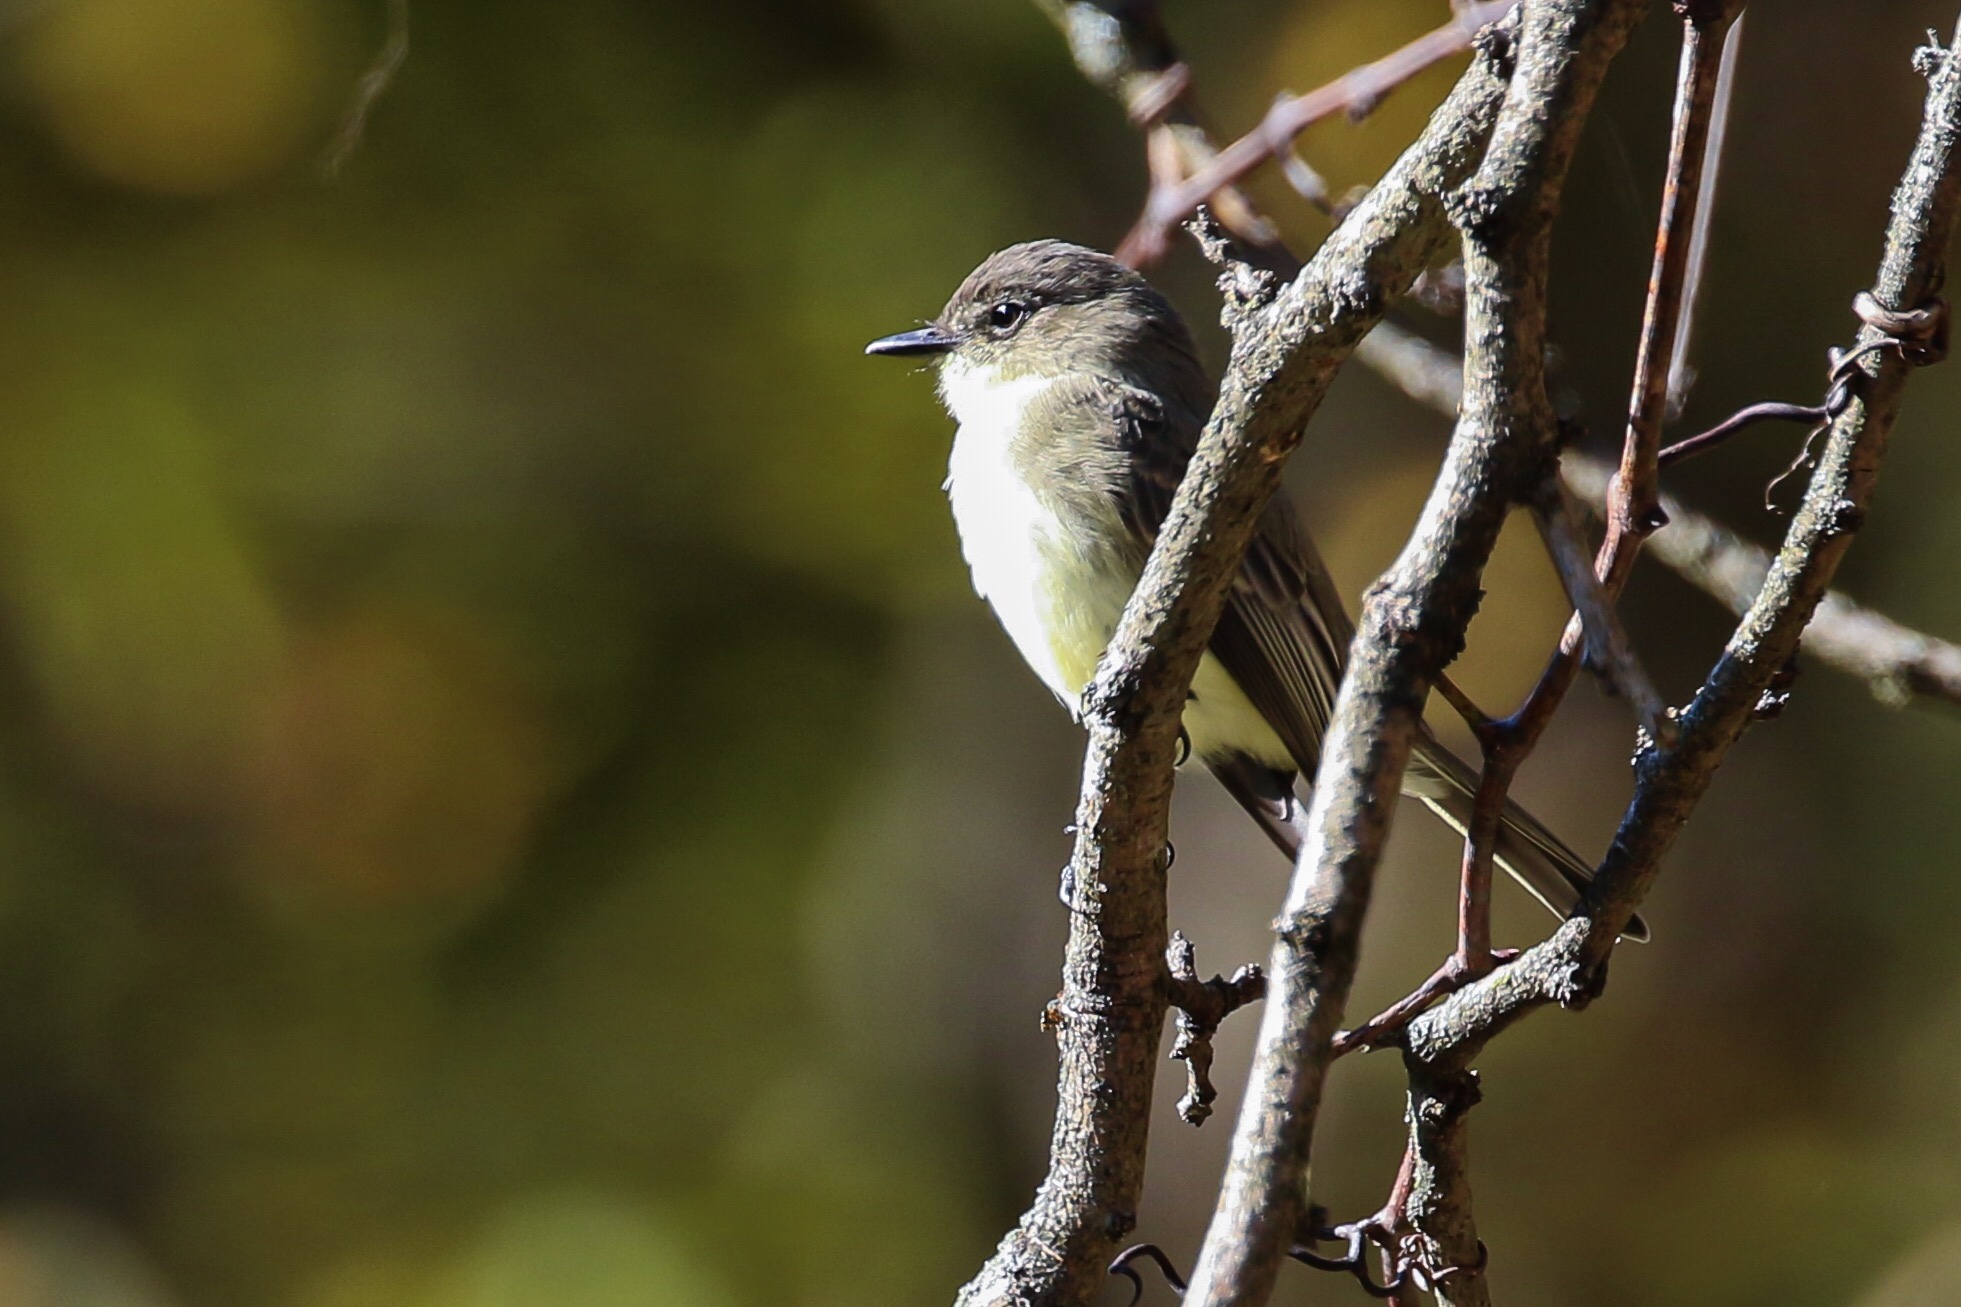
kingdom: Animalia
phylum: Chordata
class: Aves
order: Passeriformes
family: Tyrannidae
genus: Sayornis
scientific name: Sayornis phoebe
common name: Eastern phoebe
